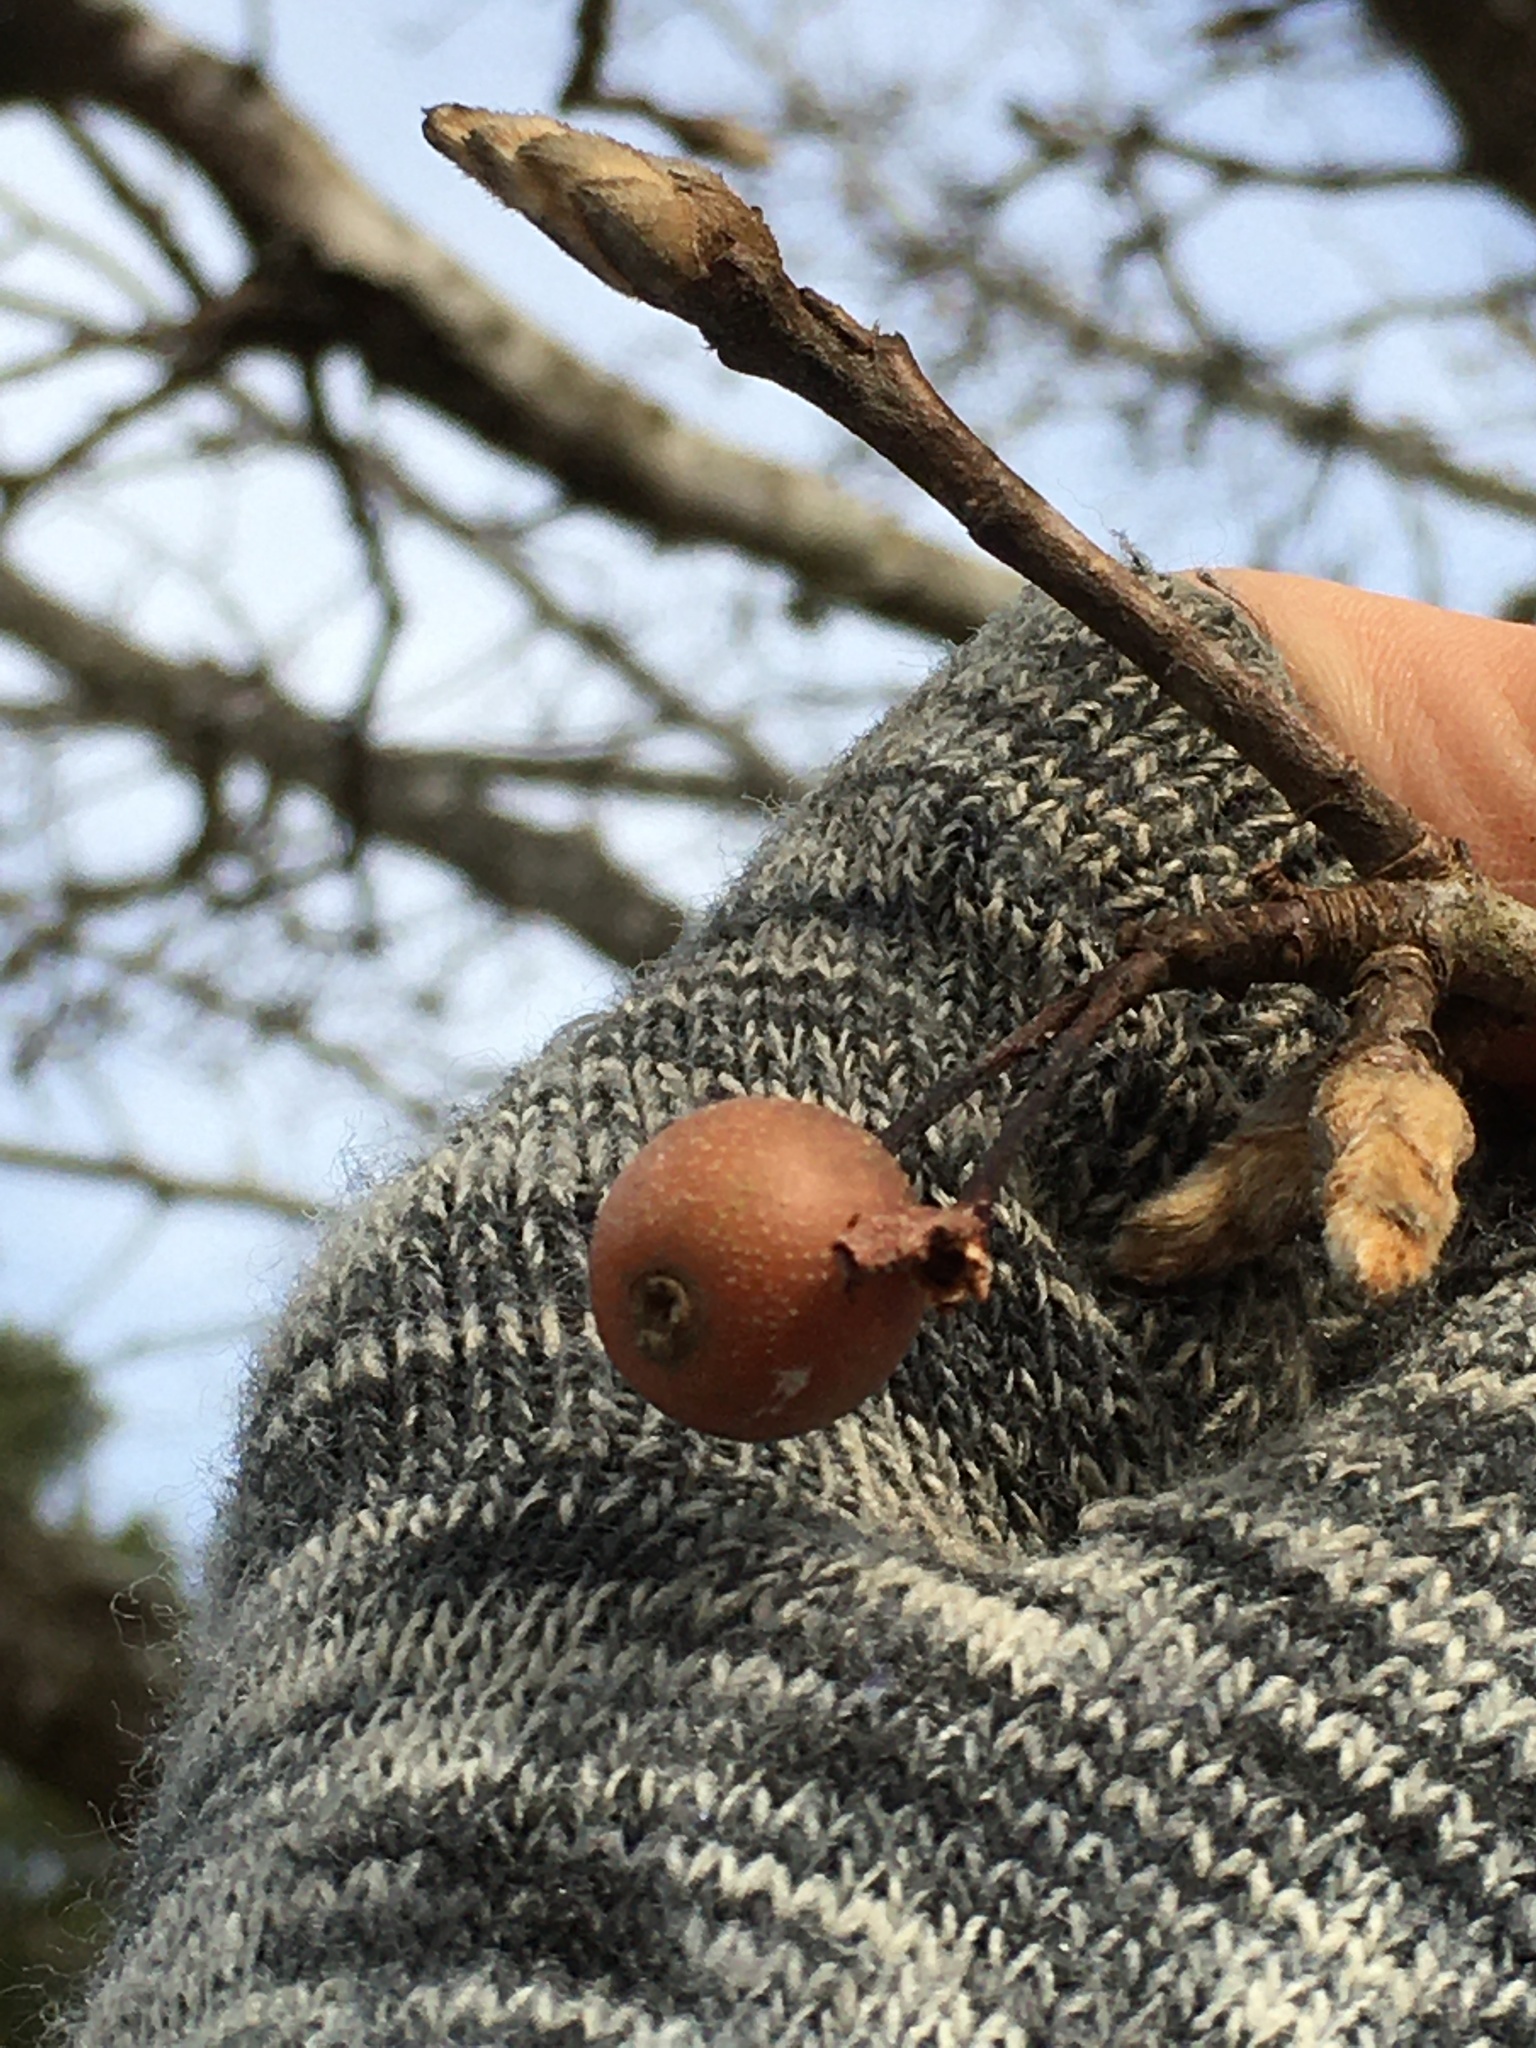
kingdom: Plantae
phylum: Tracheophyta
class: Magnoliopsida
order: Rosales
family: Rosaceae
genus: Pyrus
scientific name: Pyrus calleryana
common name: Callery pear
